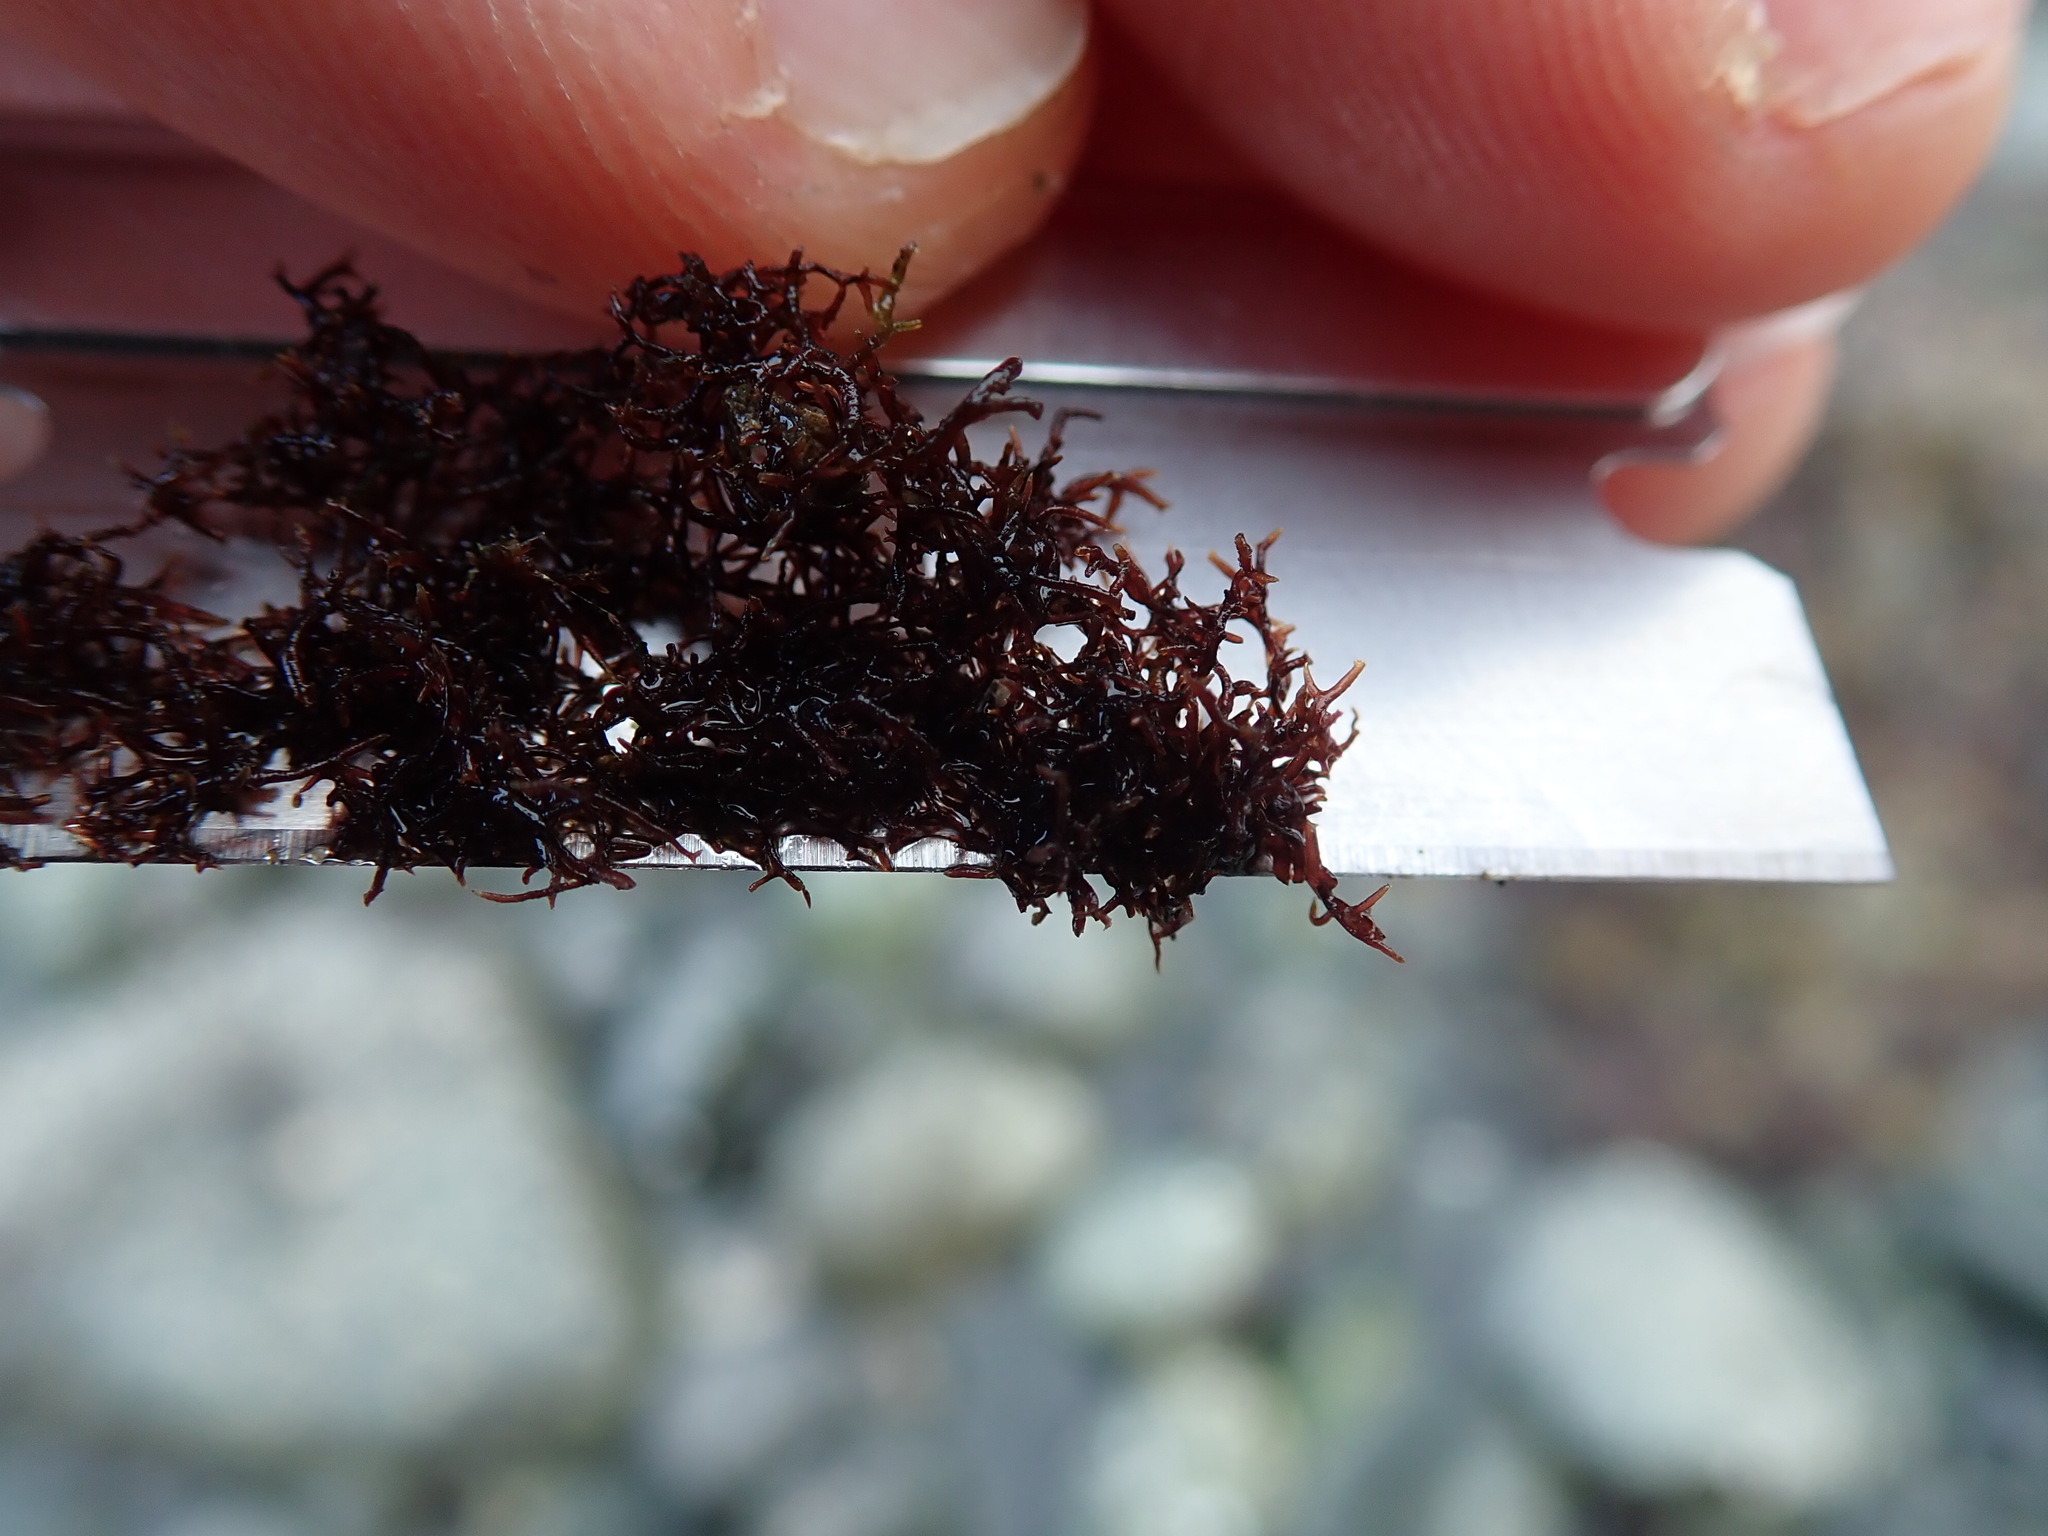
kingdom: Plantae
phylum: Rhodophyta
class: Florideophyceae
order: Gigartinales
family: Endocladiaceae
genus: Endocladia
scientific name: Endocladia muricata
